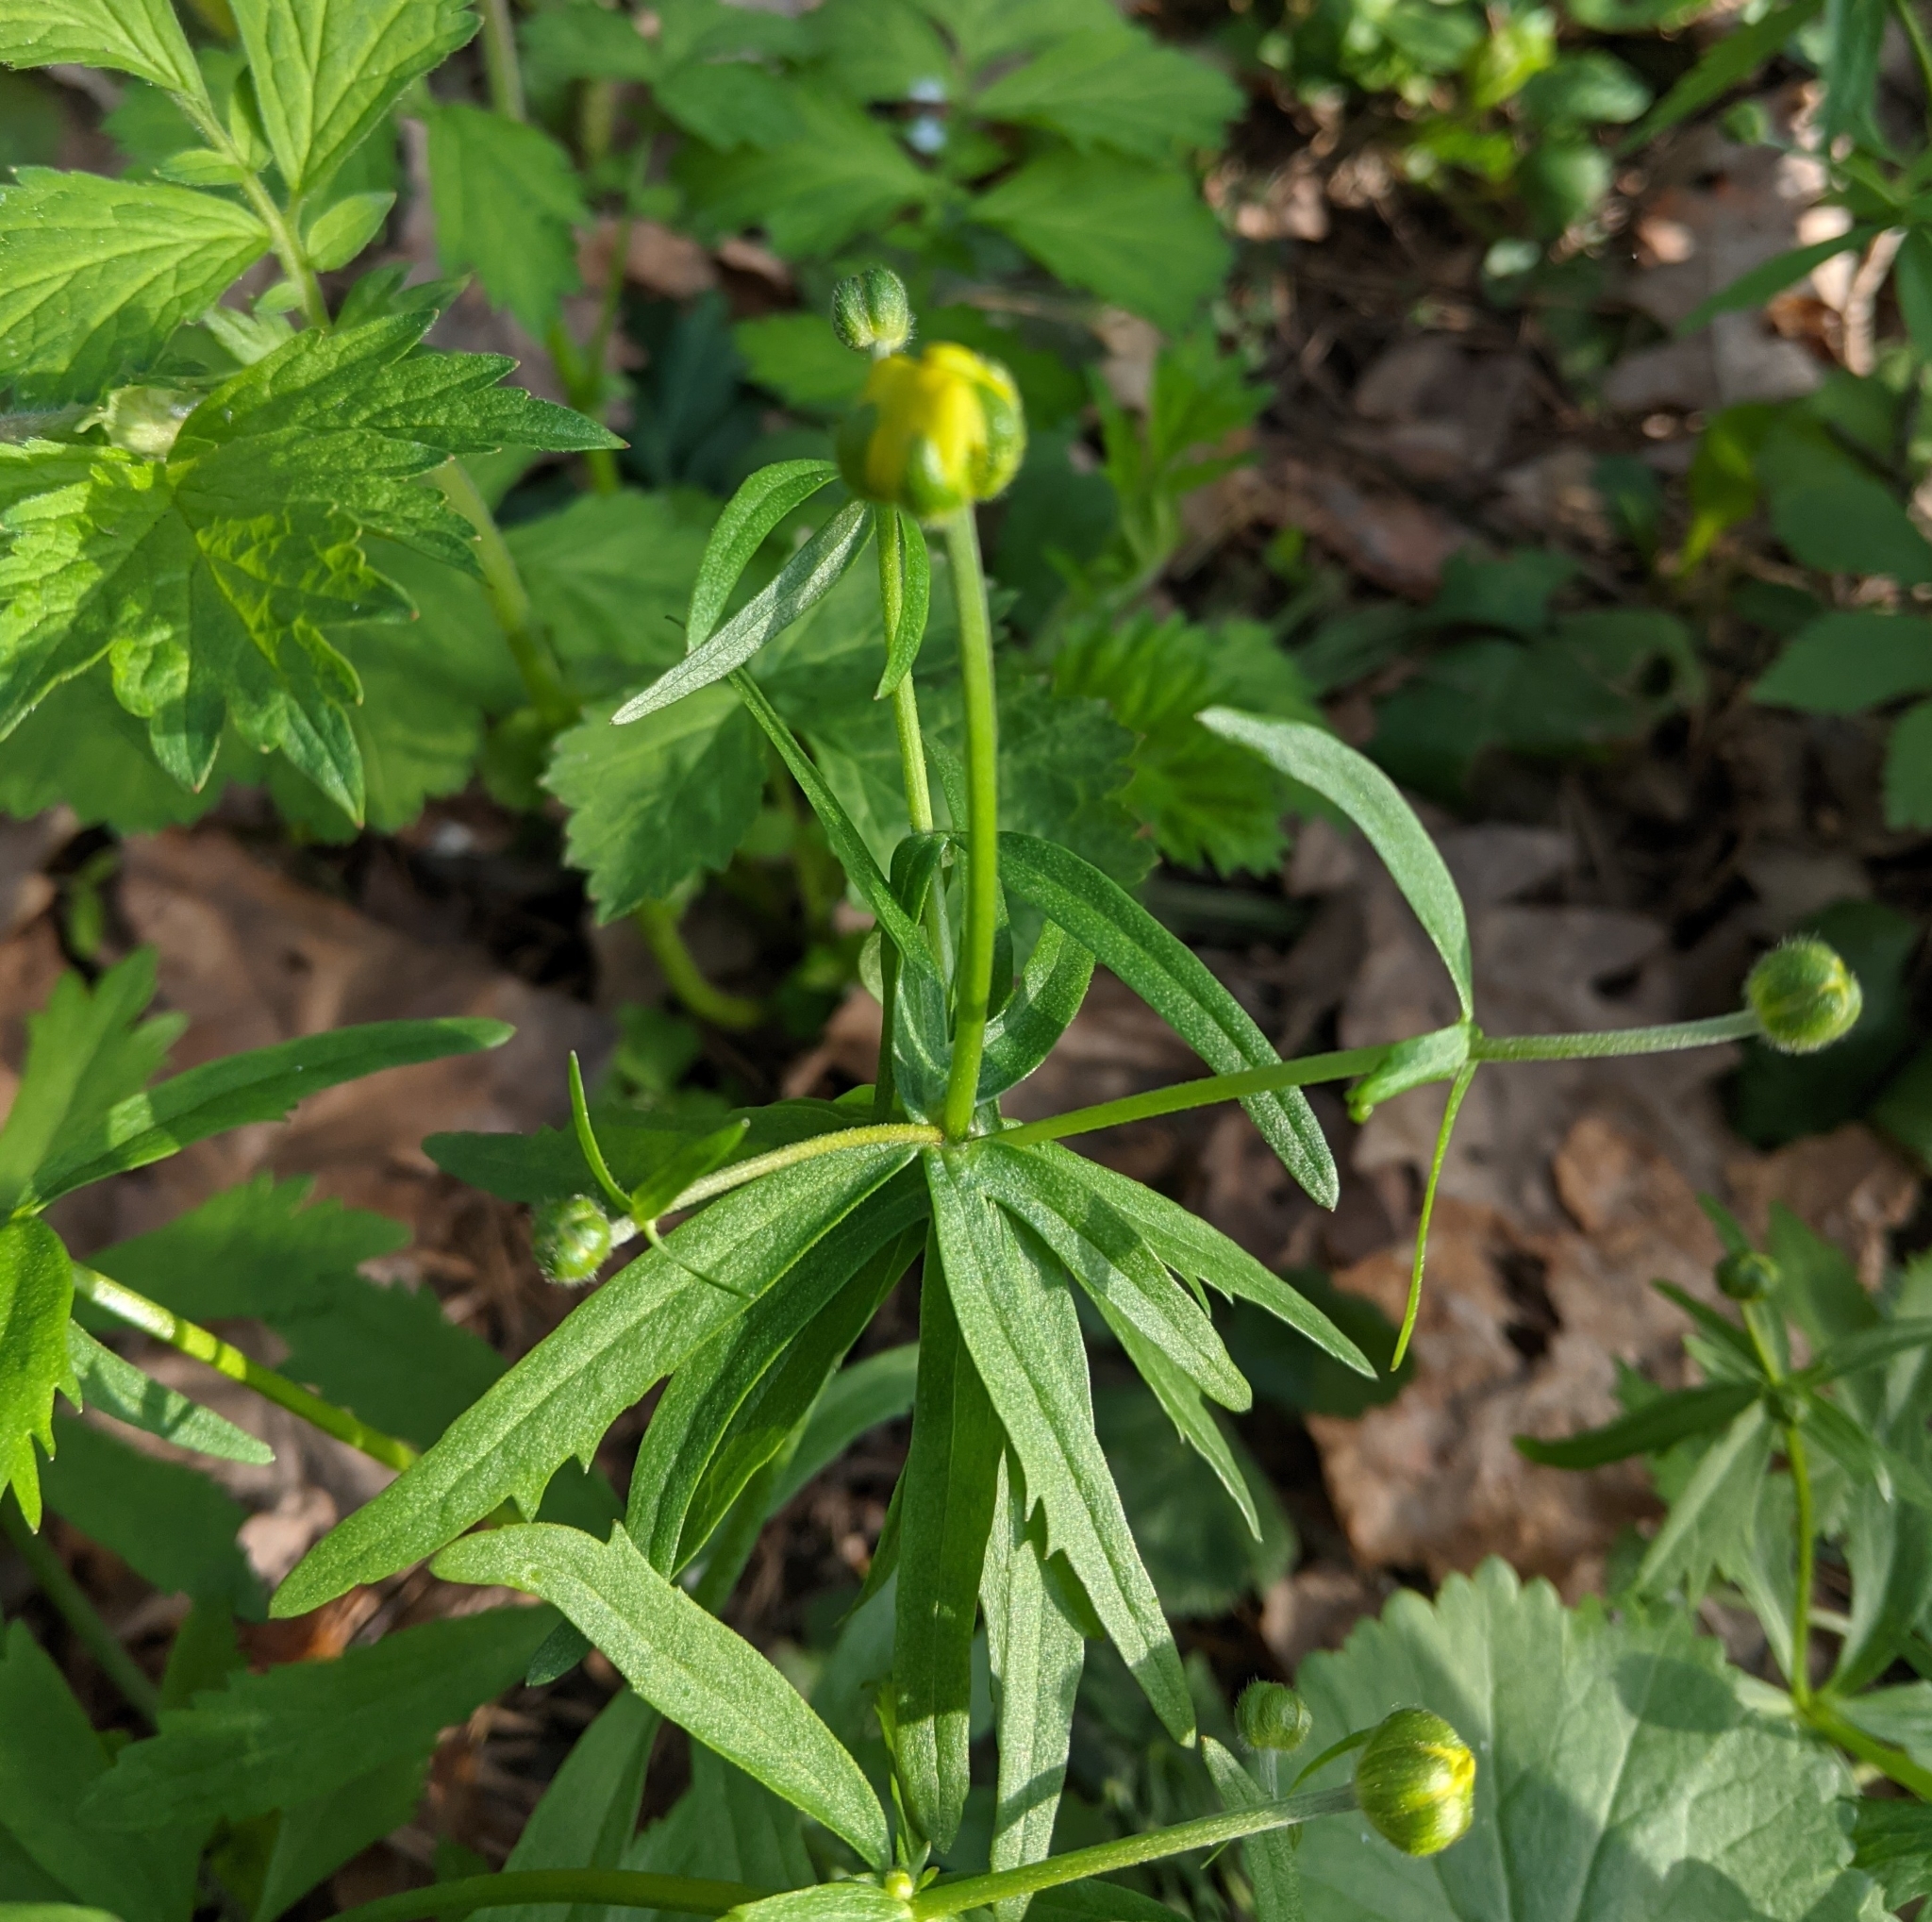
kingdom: Plantae
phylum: Tracheophyta
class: Magnoliopsida
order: Ranunculales
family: Ranunculaceae
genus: Ranunculus
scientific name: Ranunculus cassubicus
